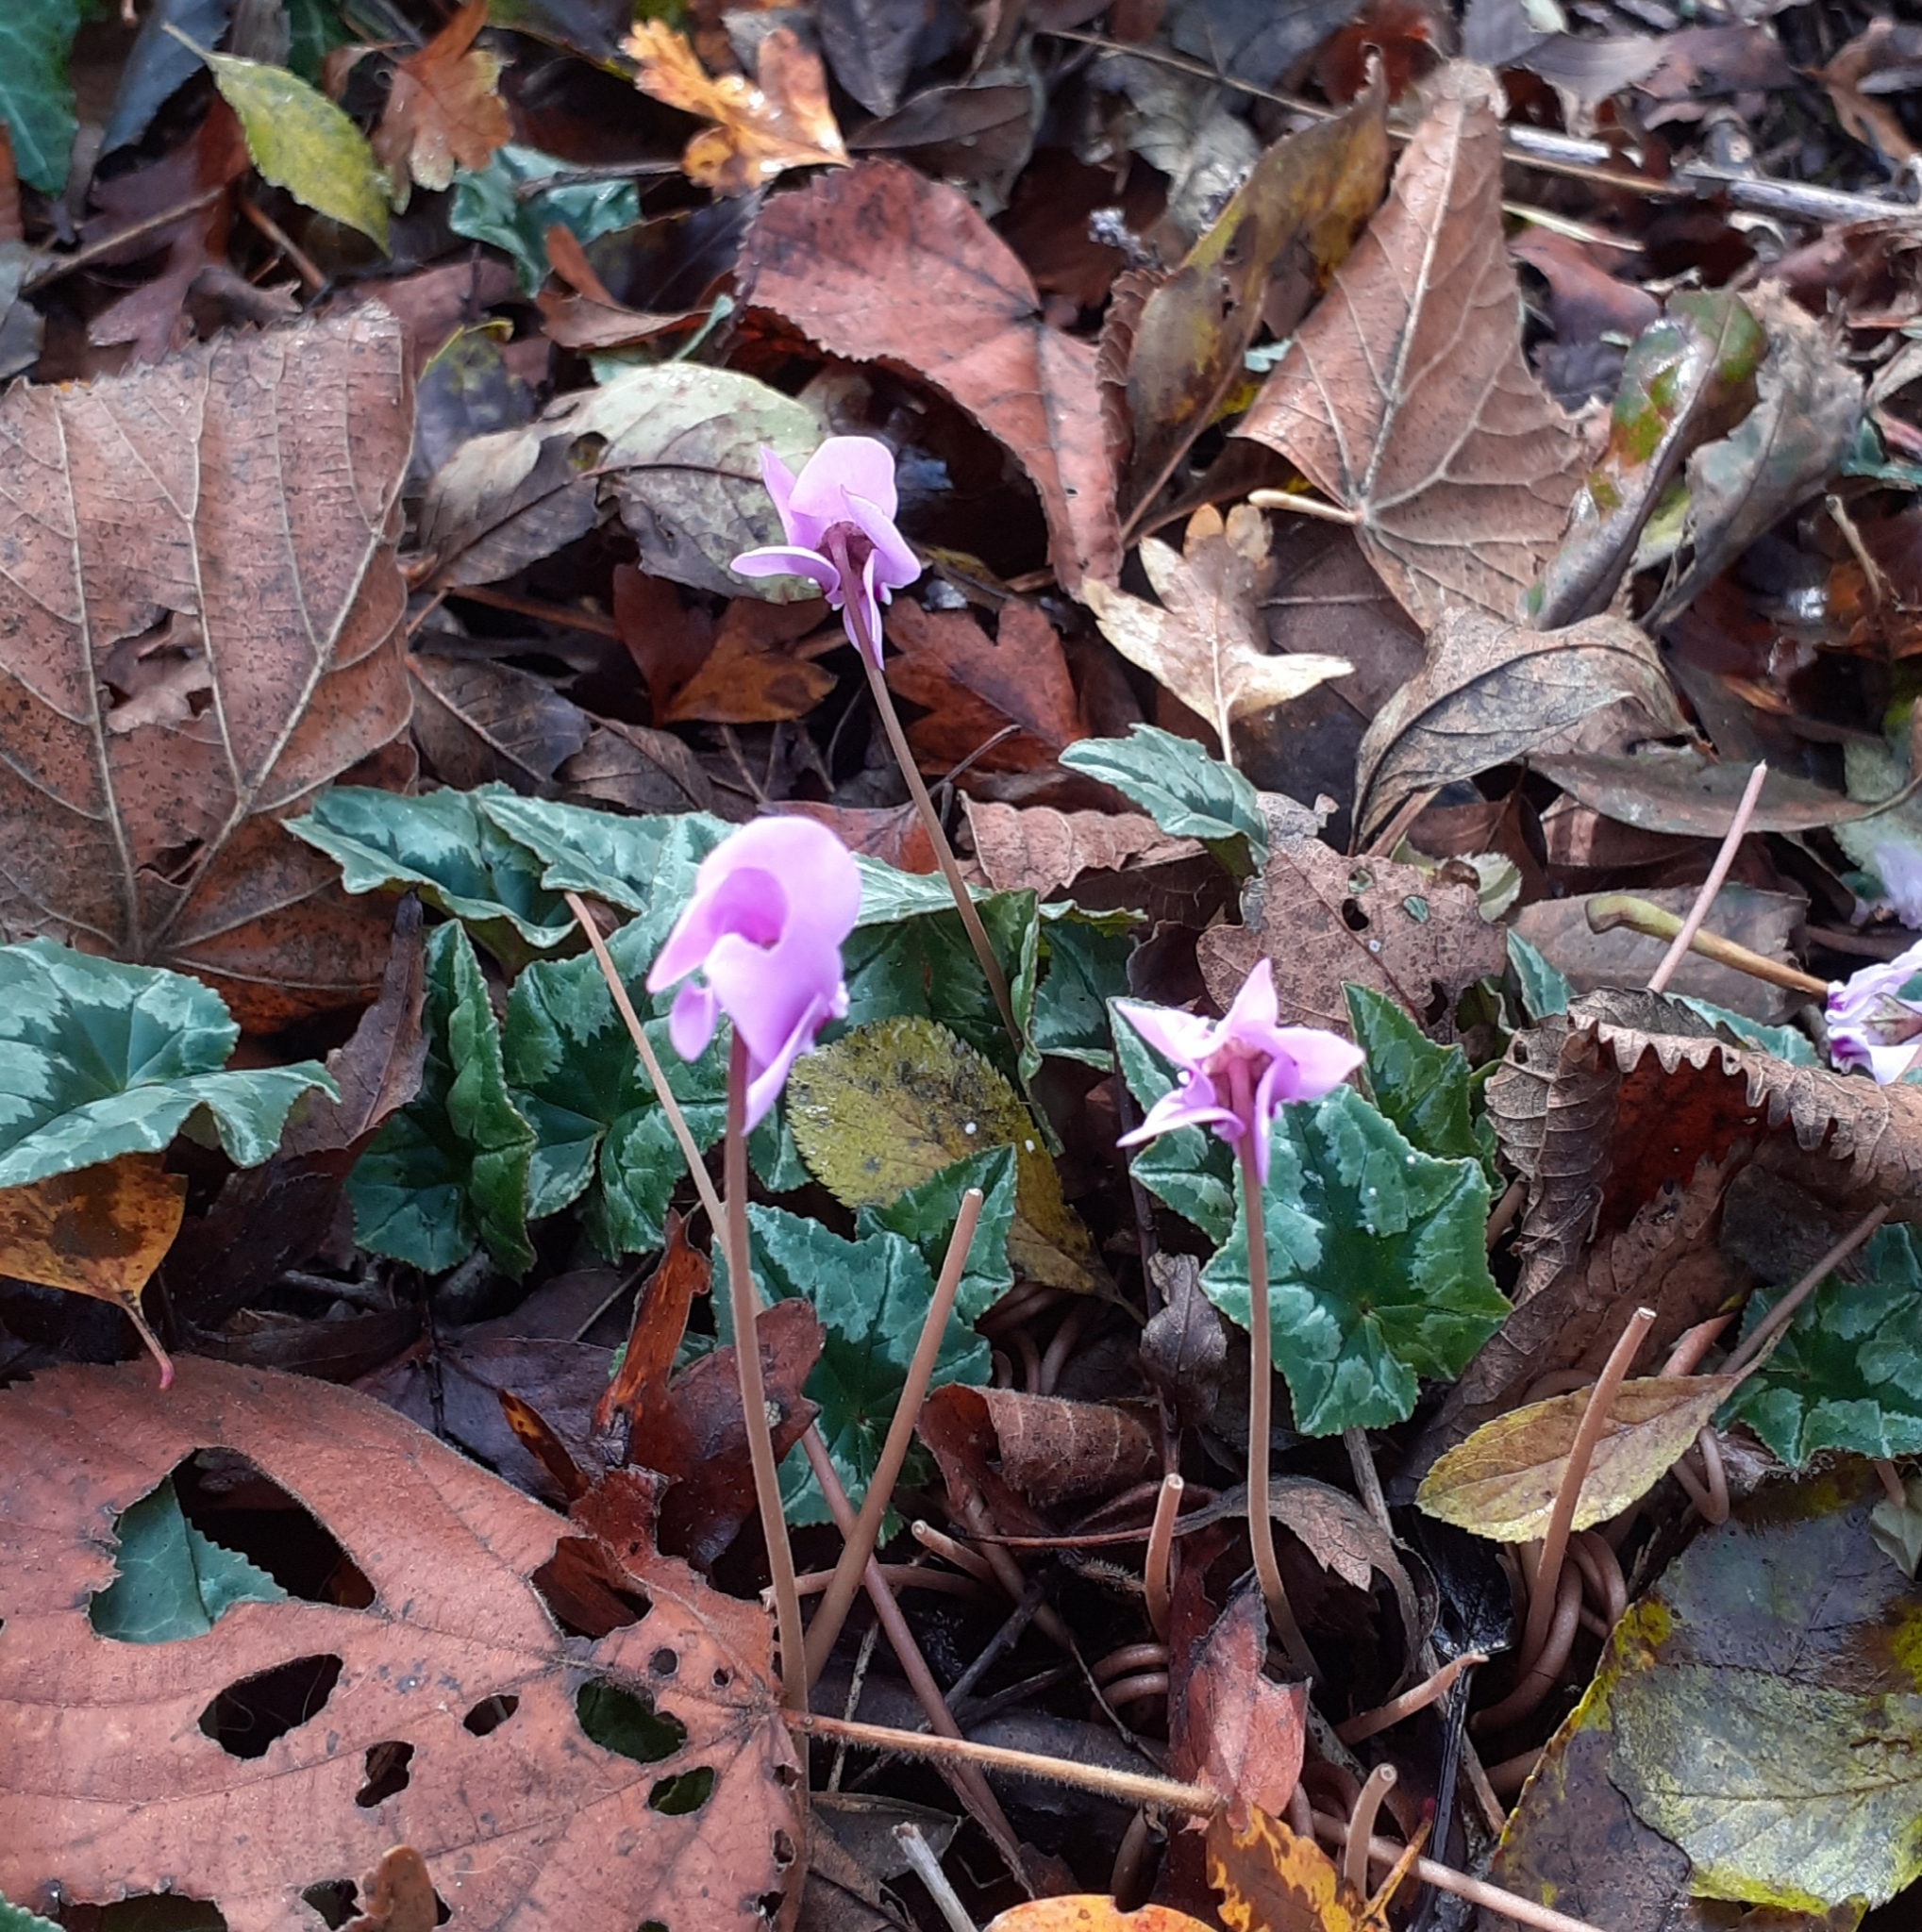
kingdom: Plantae
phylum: Tracheophyta
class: Magnoliopsida
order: Ericales
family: Primulaceae
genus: Cyclamen
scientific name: Cyclamen hederifolium
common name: Sowbread
